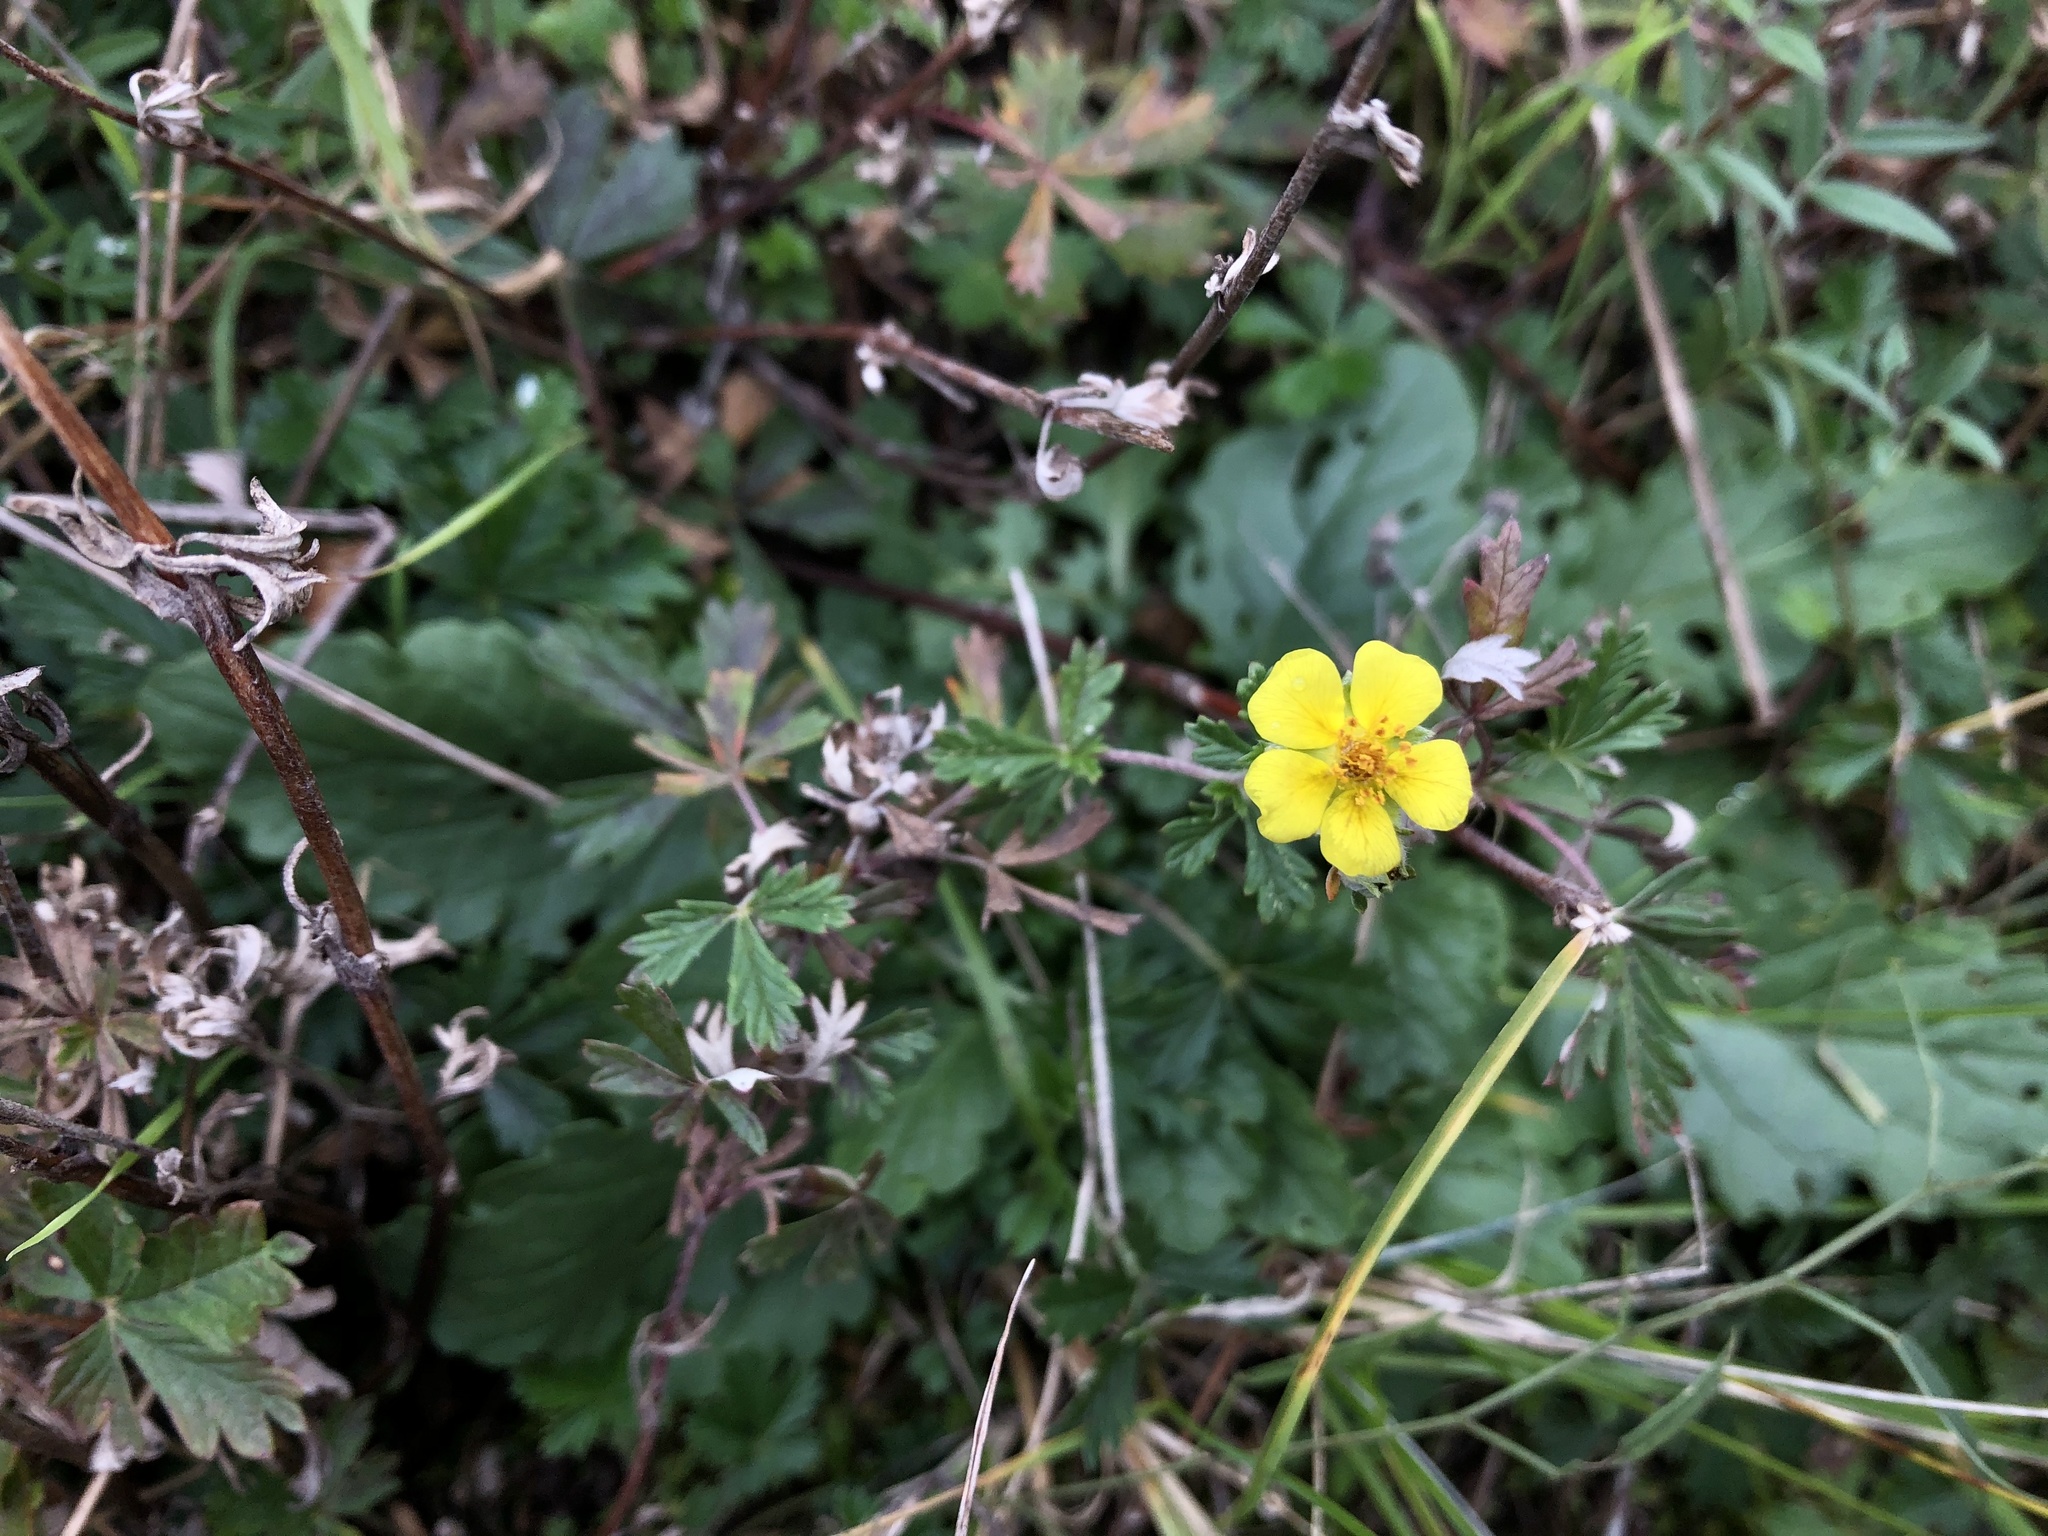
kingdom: Plantae
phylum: Tracheophyta
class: Magnoliopsida
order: Rosales
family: Rosaceae
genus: Potentilla
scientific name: Potentilla argentea
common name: Hoary cinquefoil
